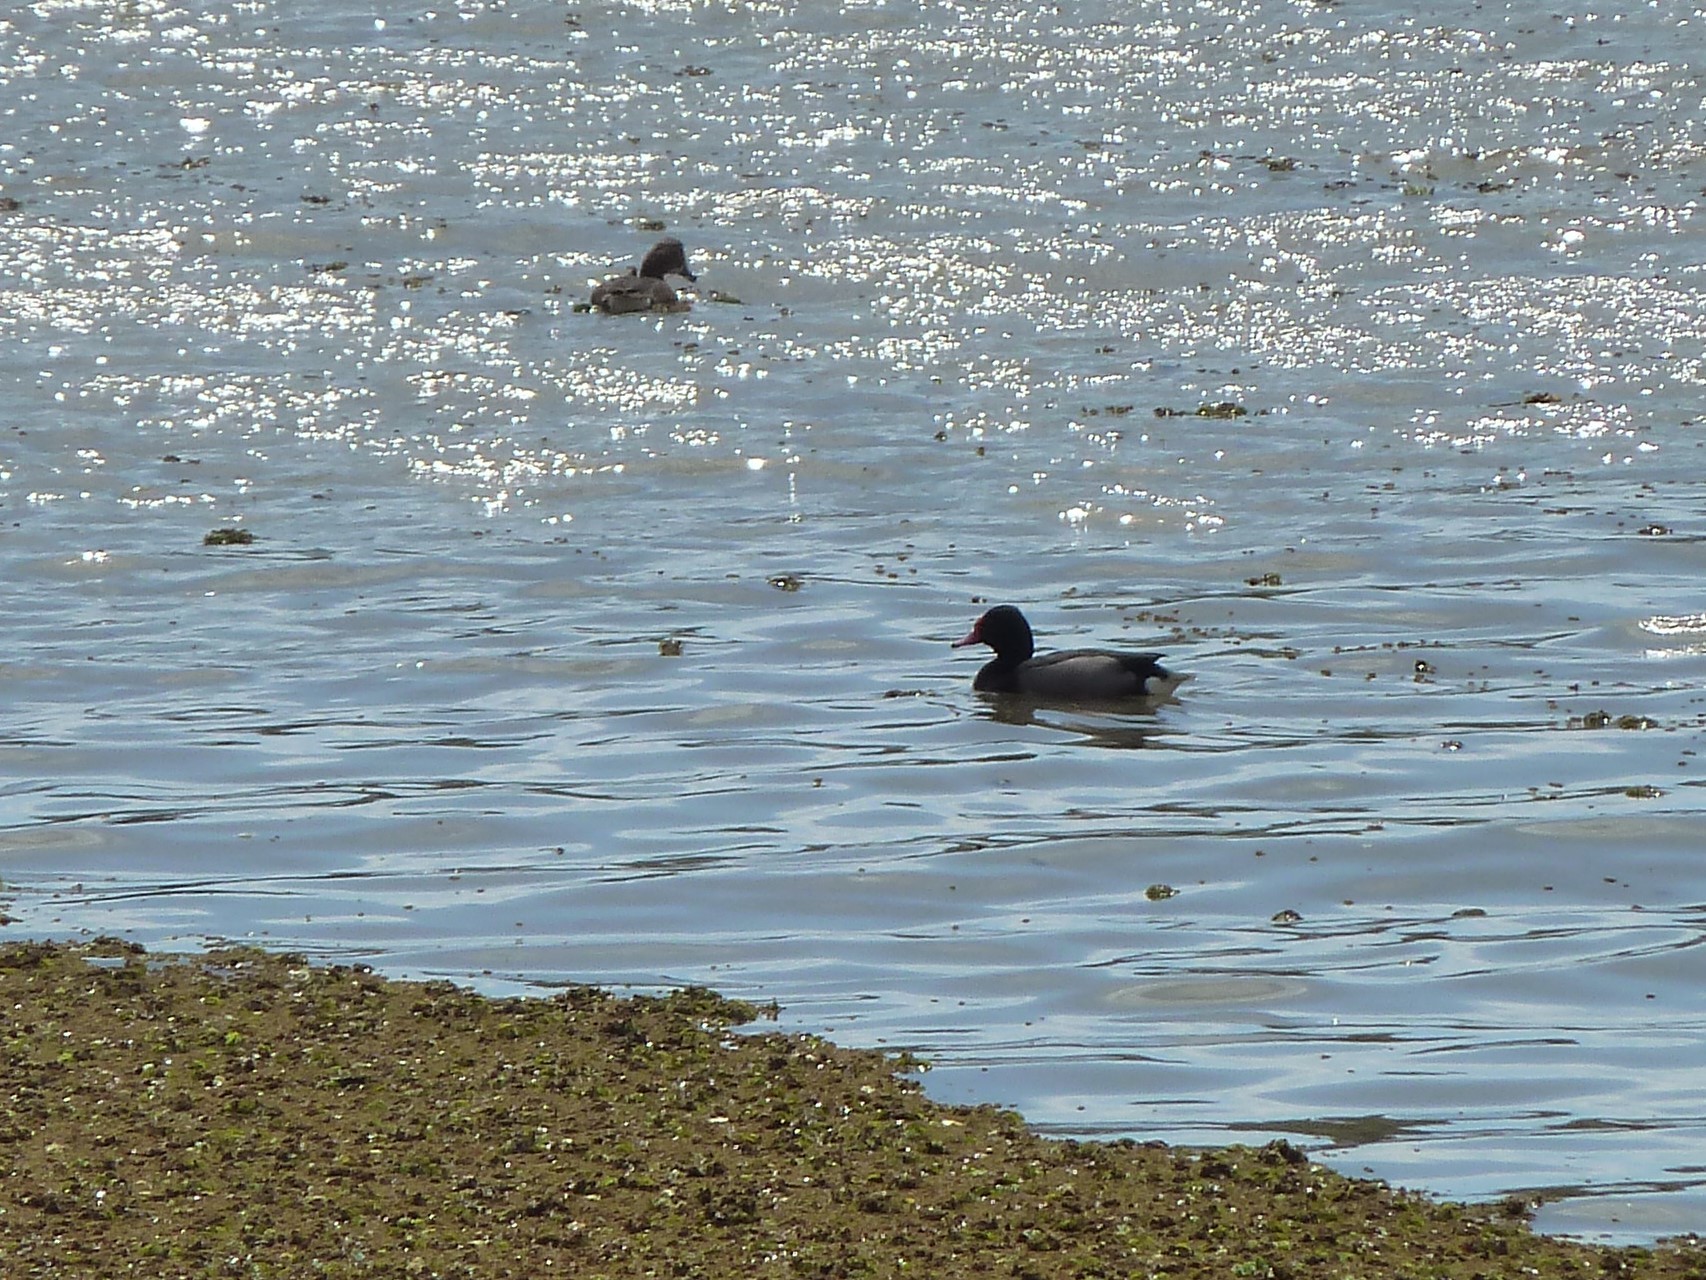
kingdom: Animalia
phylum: Chordata
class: Aves
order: Anseriformes
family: Anatidae
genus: Netta
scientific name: Netta peposaca
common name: Rosy-billed pochard
